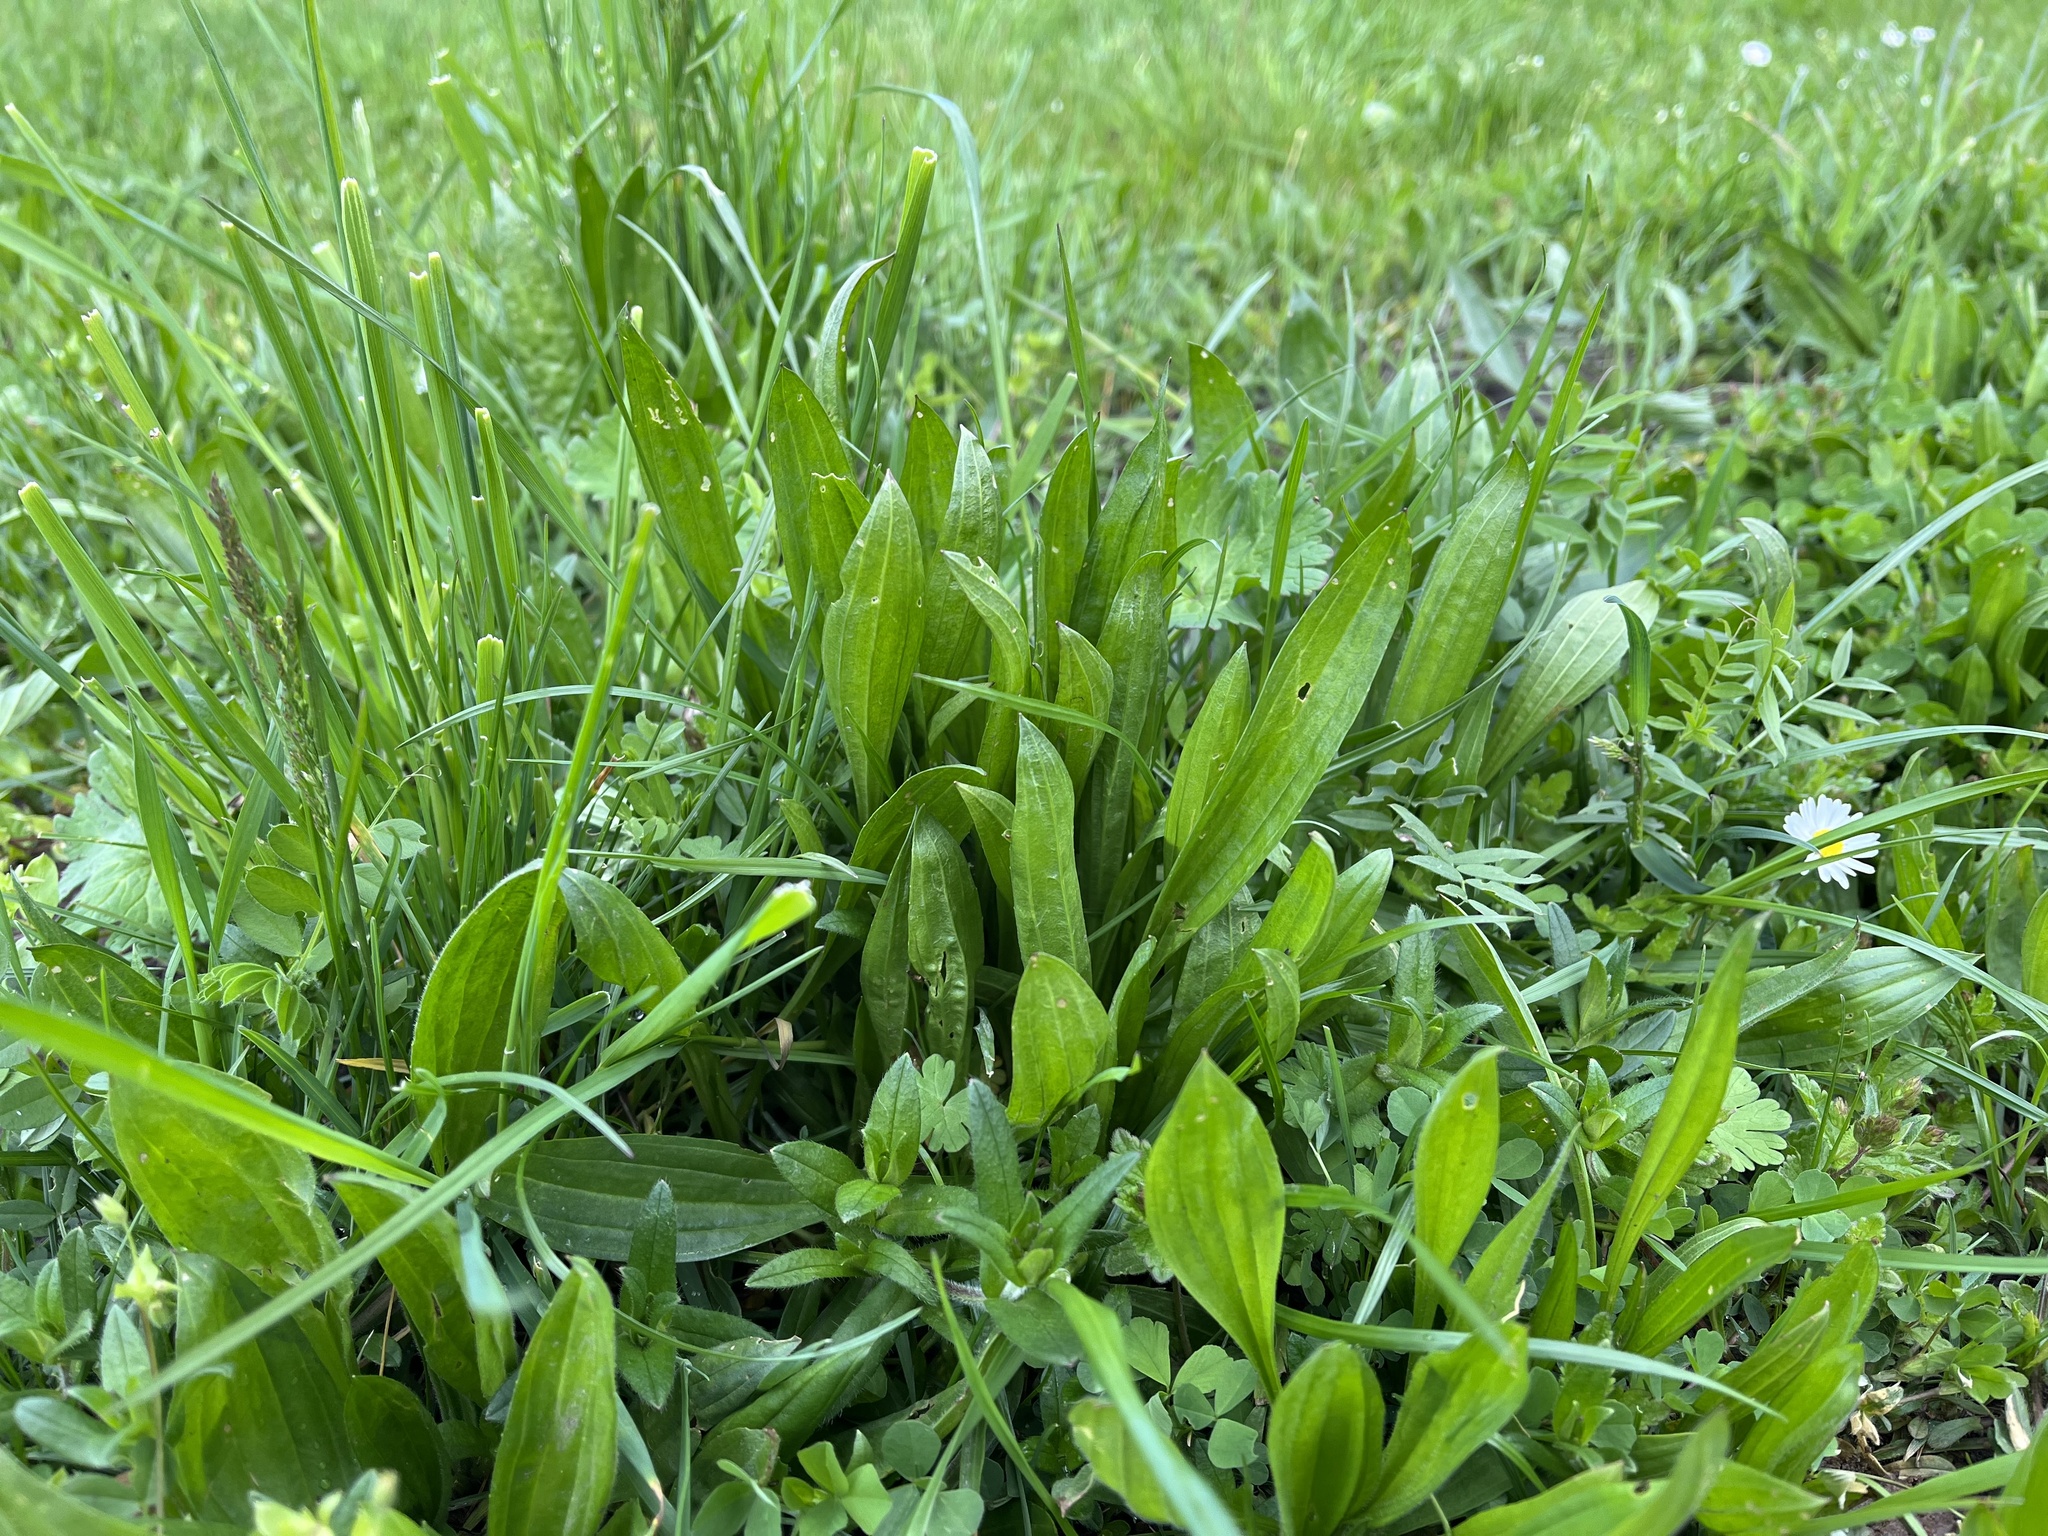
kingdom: Plantae
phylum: Tracheophyta
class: Magnoliopsida
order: Lamiales
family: Plantaginaceae
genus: Plantago
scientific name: Plantago lanceolata
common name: Ribwort plantain
